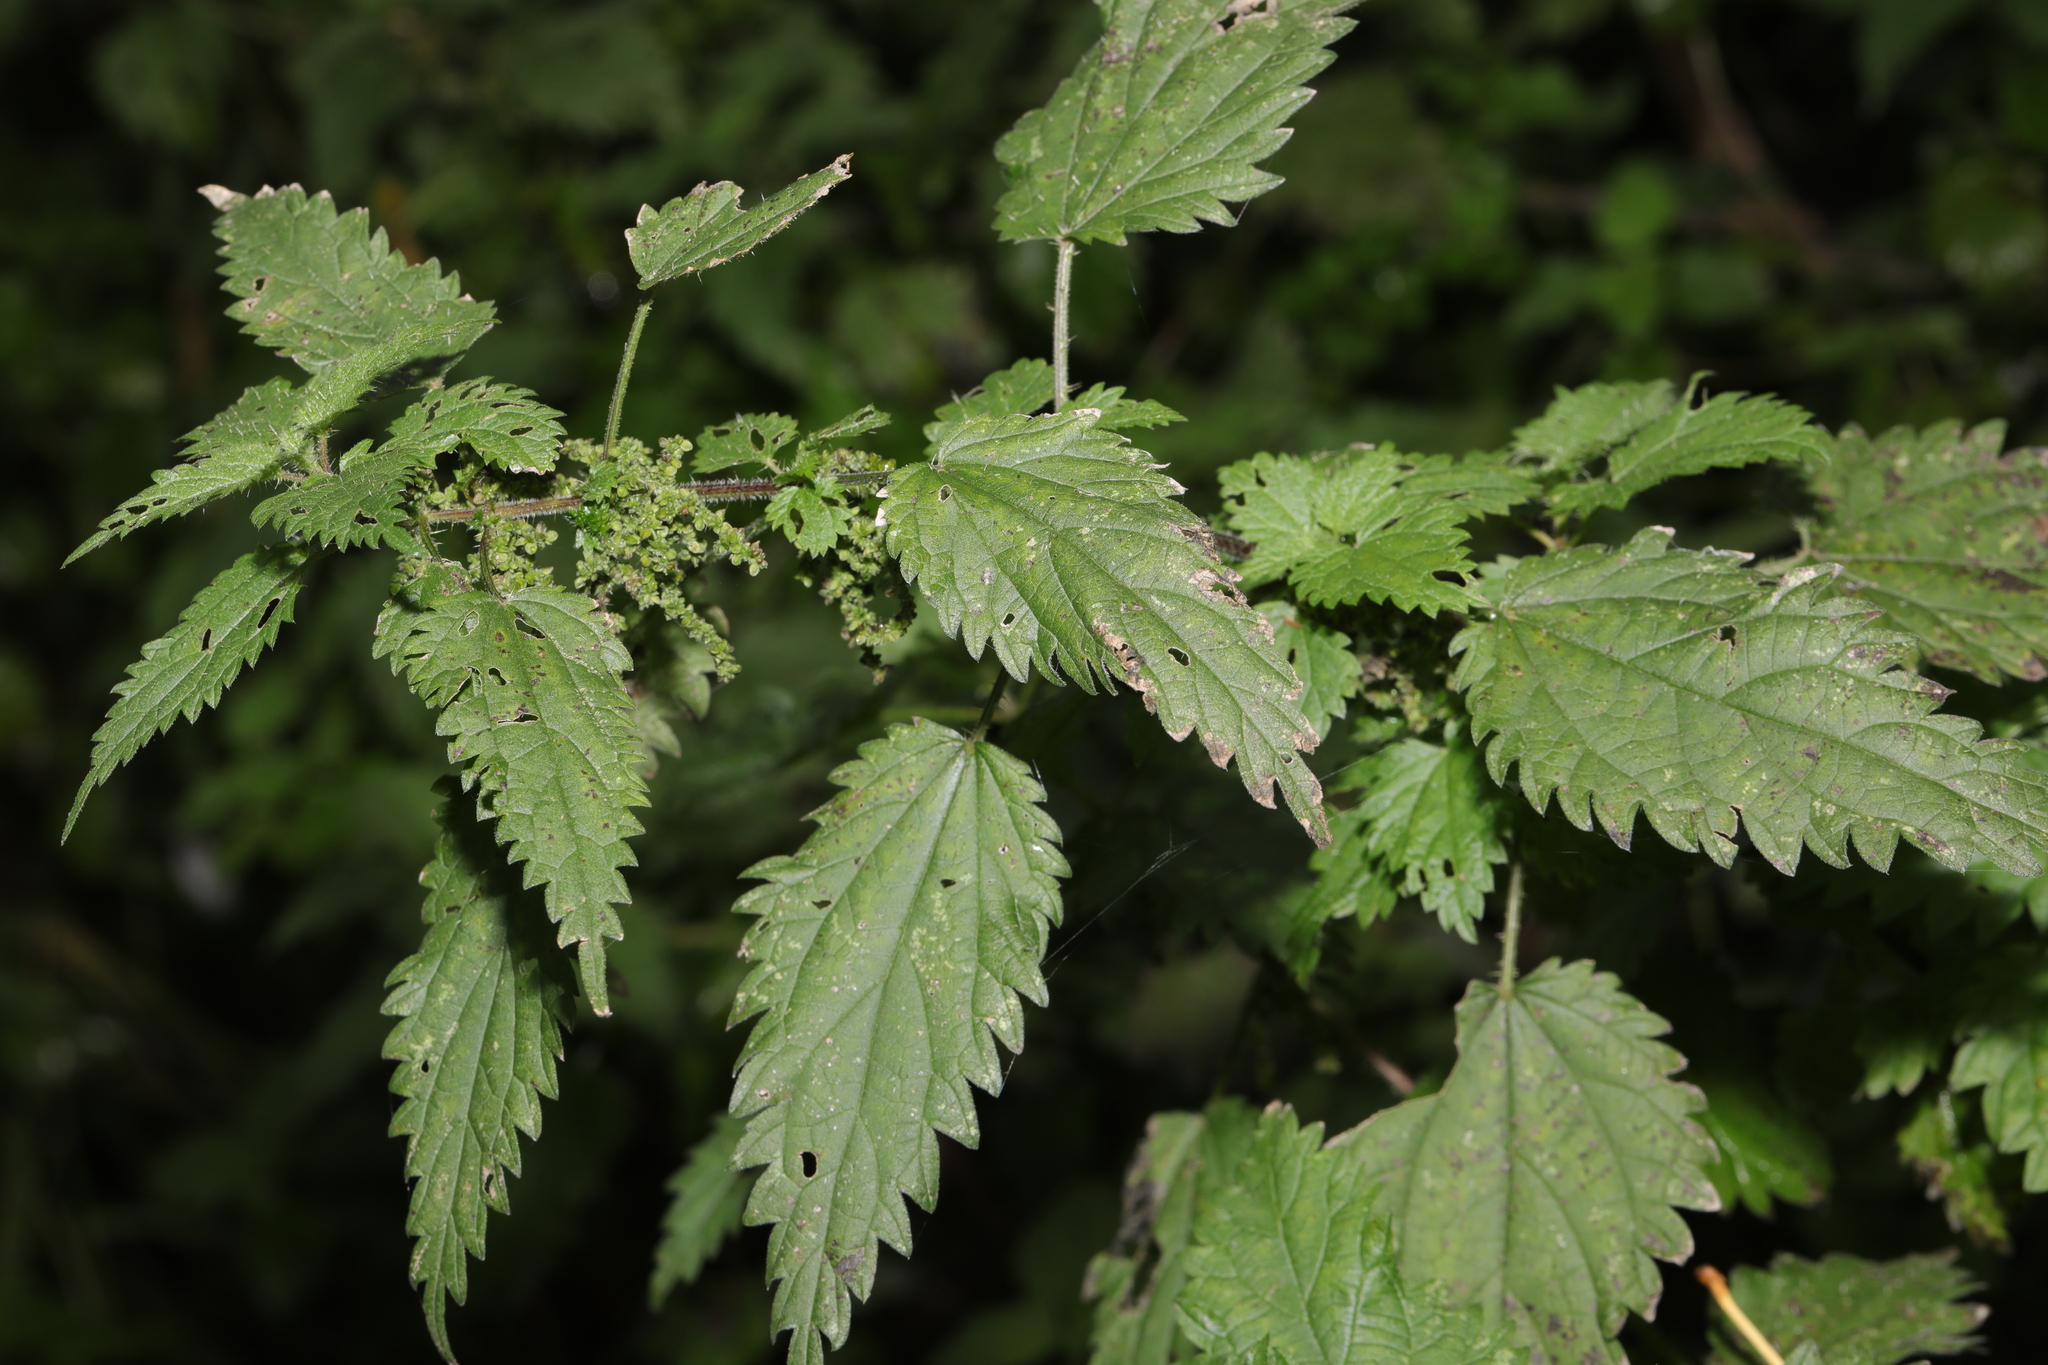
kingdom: Plantae
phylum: Tracheophyta
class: Magnoliopsida
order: Rosales
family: Urticaceae
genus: Urtica
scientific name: Urtica dioica
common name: Common nettle
